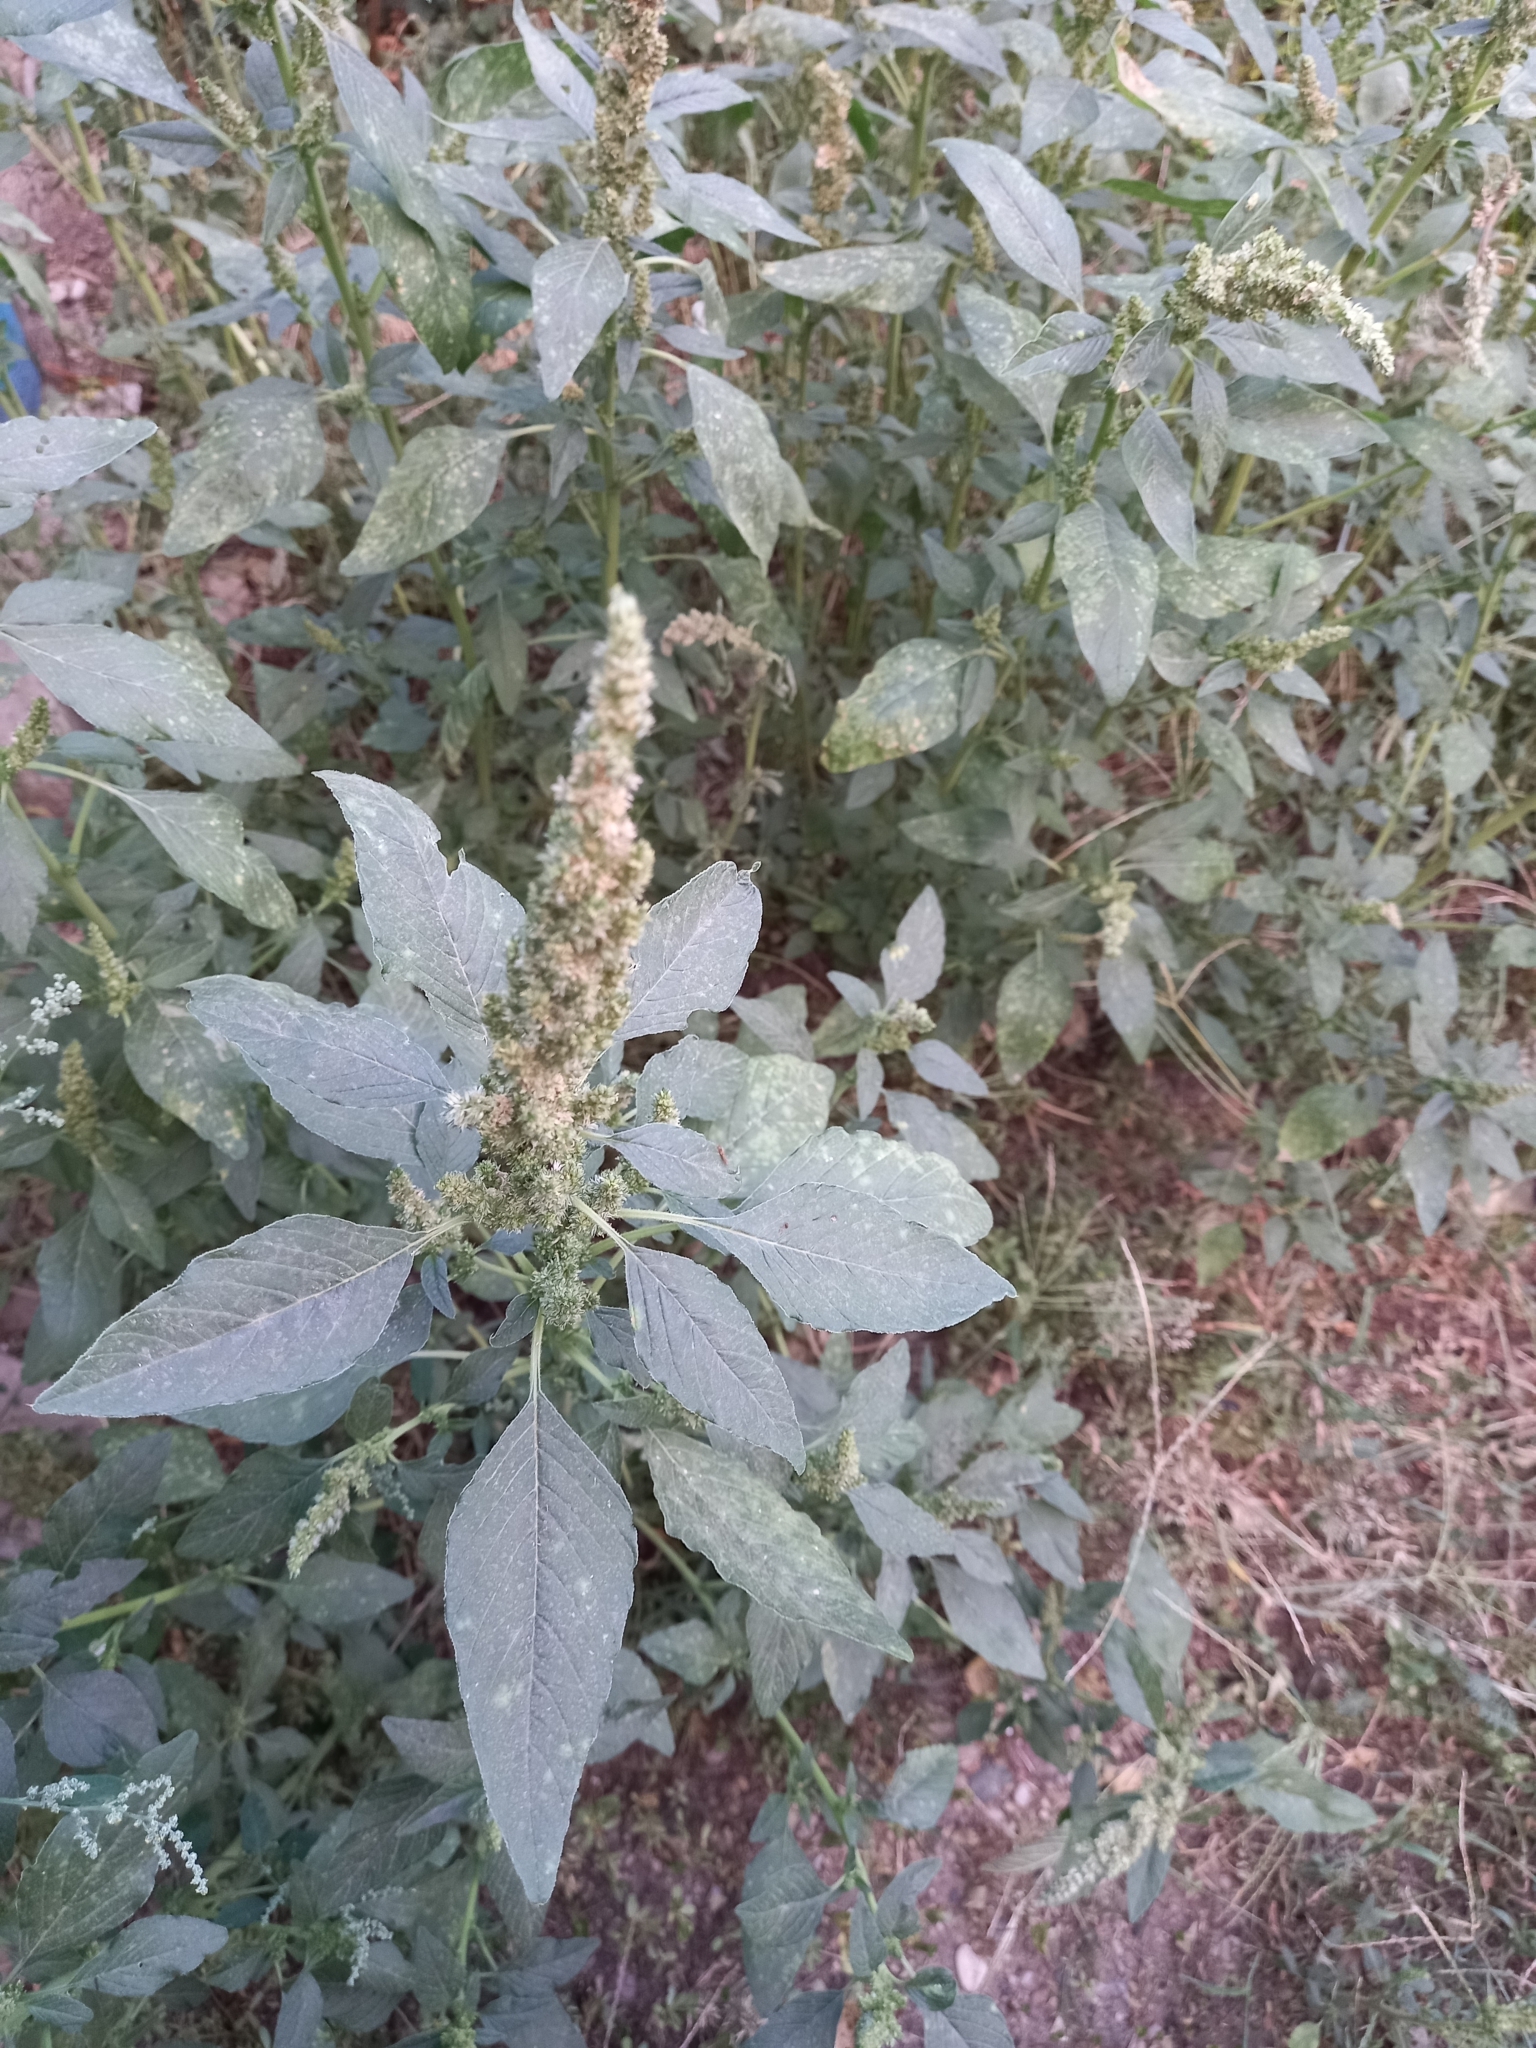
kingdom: Plantae
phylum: Tracheophyta
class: Magnoliopsida
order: Caryophyllales
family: Amaranthaceae
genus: Amaranthus
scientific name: Amaranthus retroflexus
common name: Redroot amaranth
